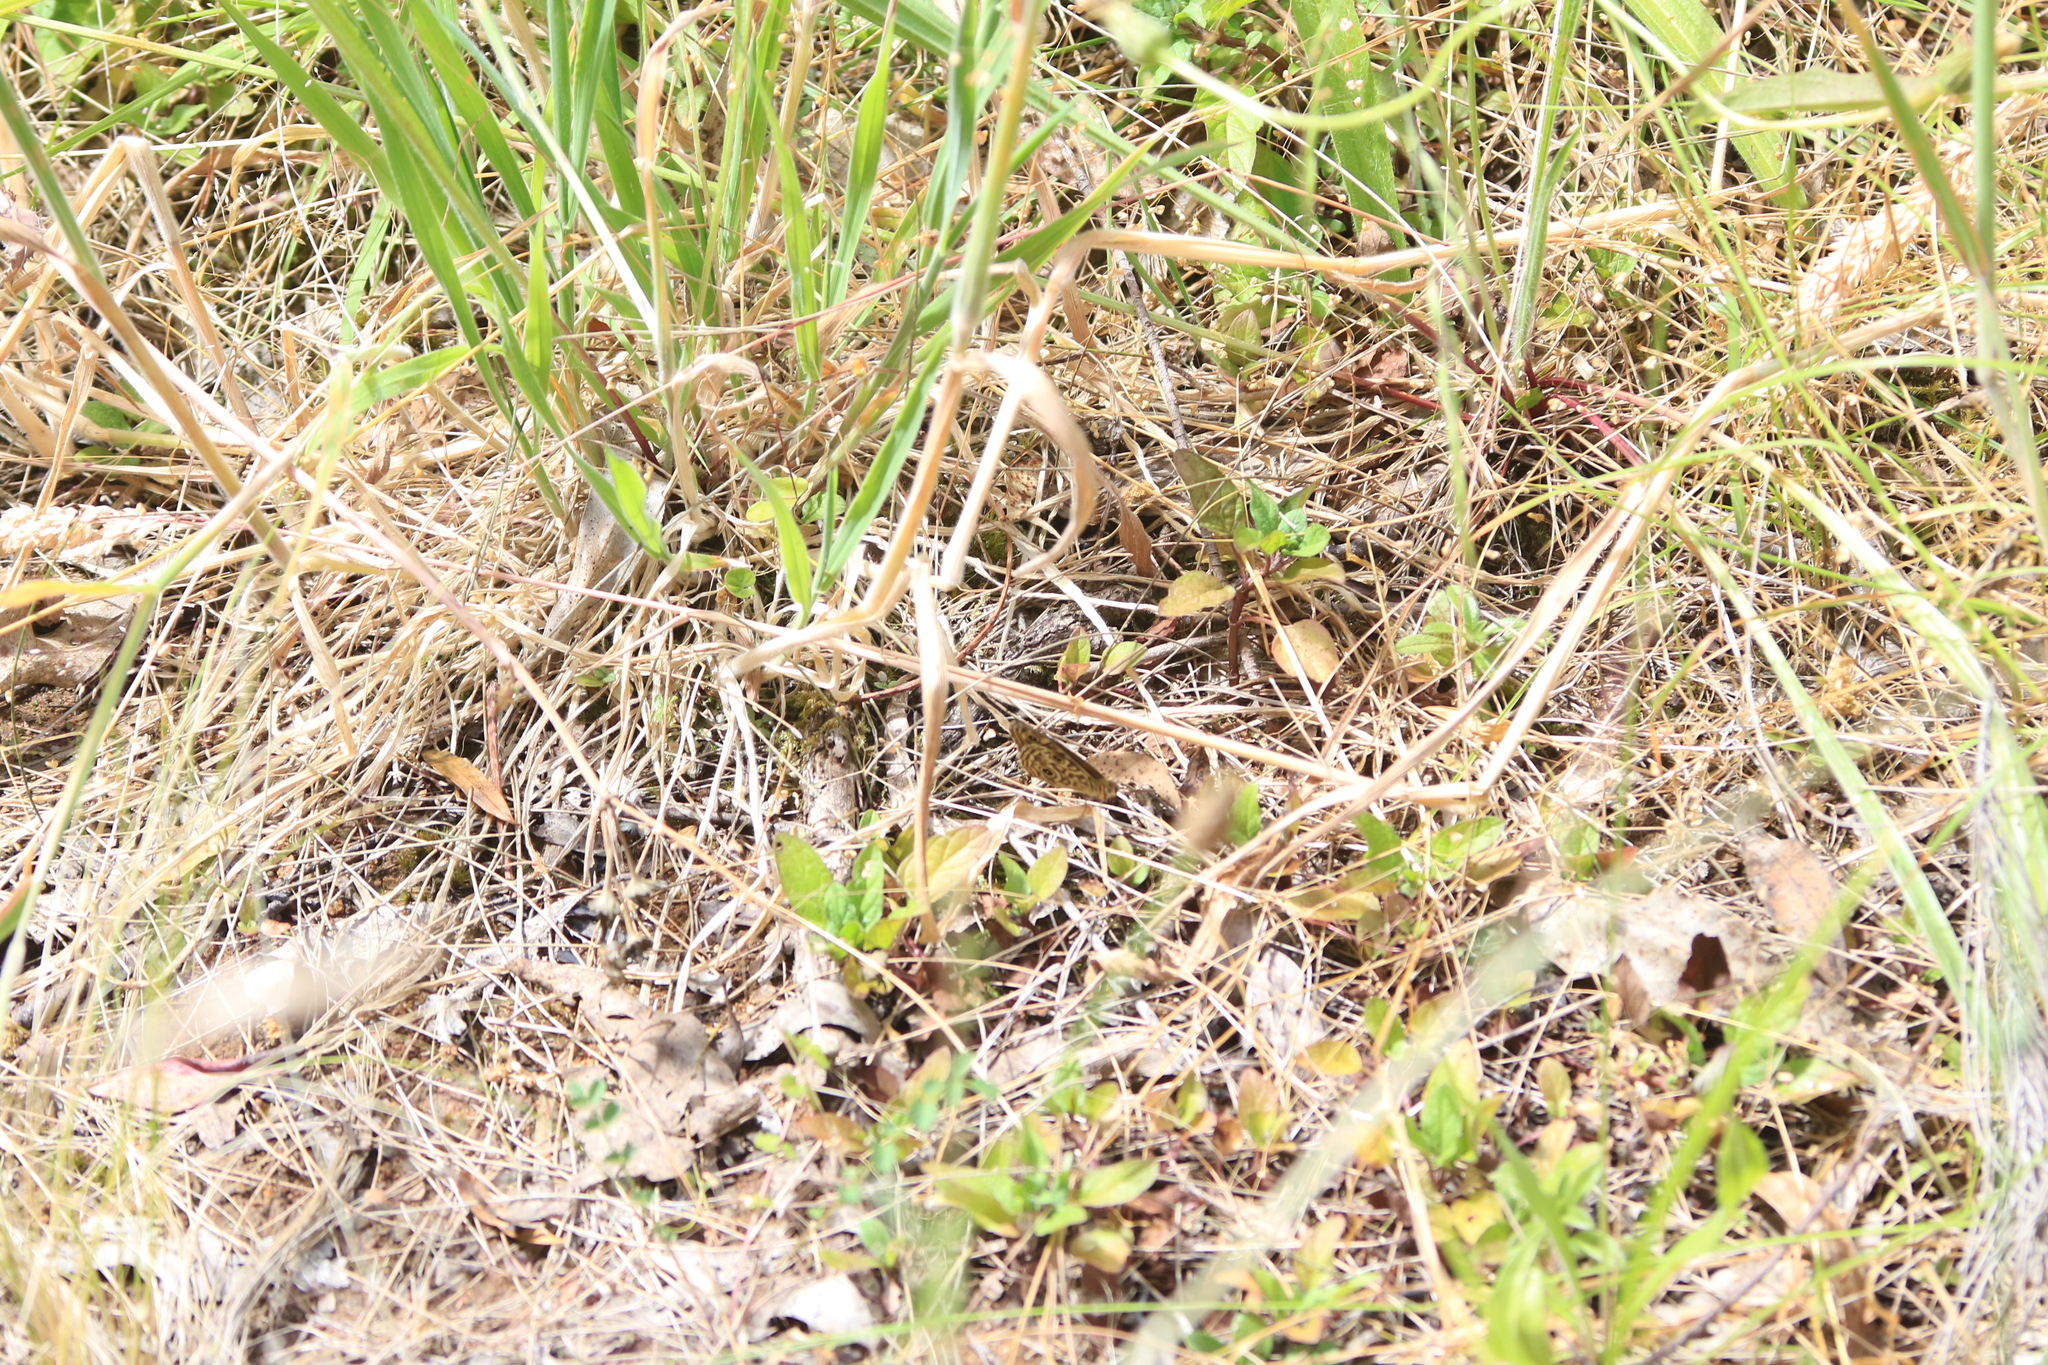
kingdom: Animalia
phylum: Arthropoda
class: Insecta
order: Lepidoptera
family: Nymphalidae
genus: Geitoneura
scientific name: Geitoneura acantha
